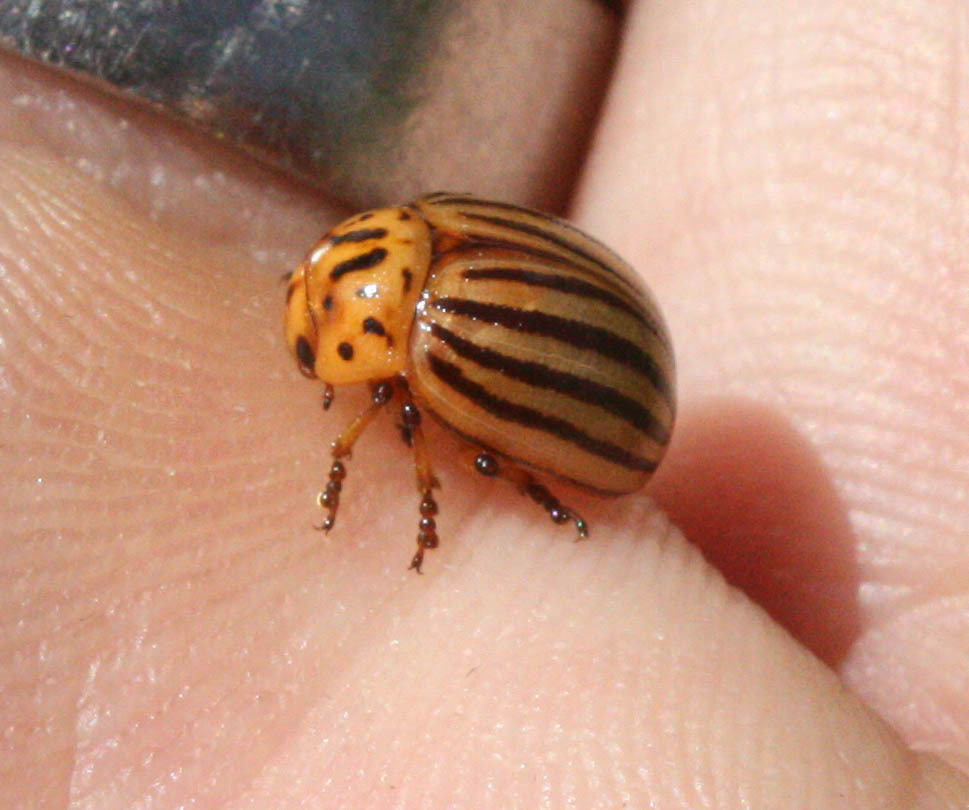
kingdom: Animalia
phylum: Arthropoda
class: Insecta
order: Coleoptera
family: Chrysomelidae
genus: Leptinotarsa
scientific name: Leptinotarsa decemlineata
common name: Colorado potato beetle
